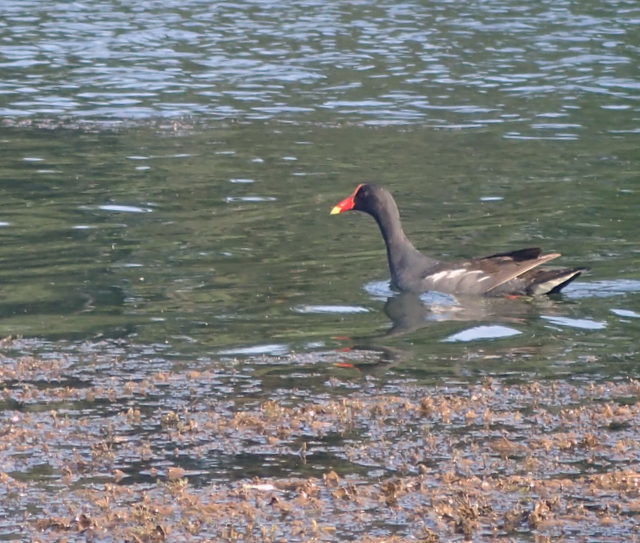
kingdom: Animalia
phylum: Chordata
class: Aves
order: Gruiformes
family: Rallidae
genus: Gallinula
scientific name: Gallinula chloropus
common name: Common moorhen
